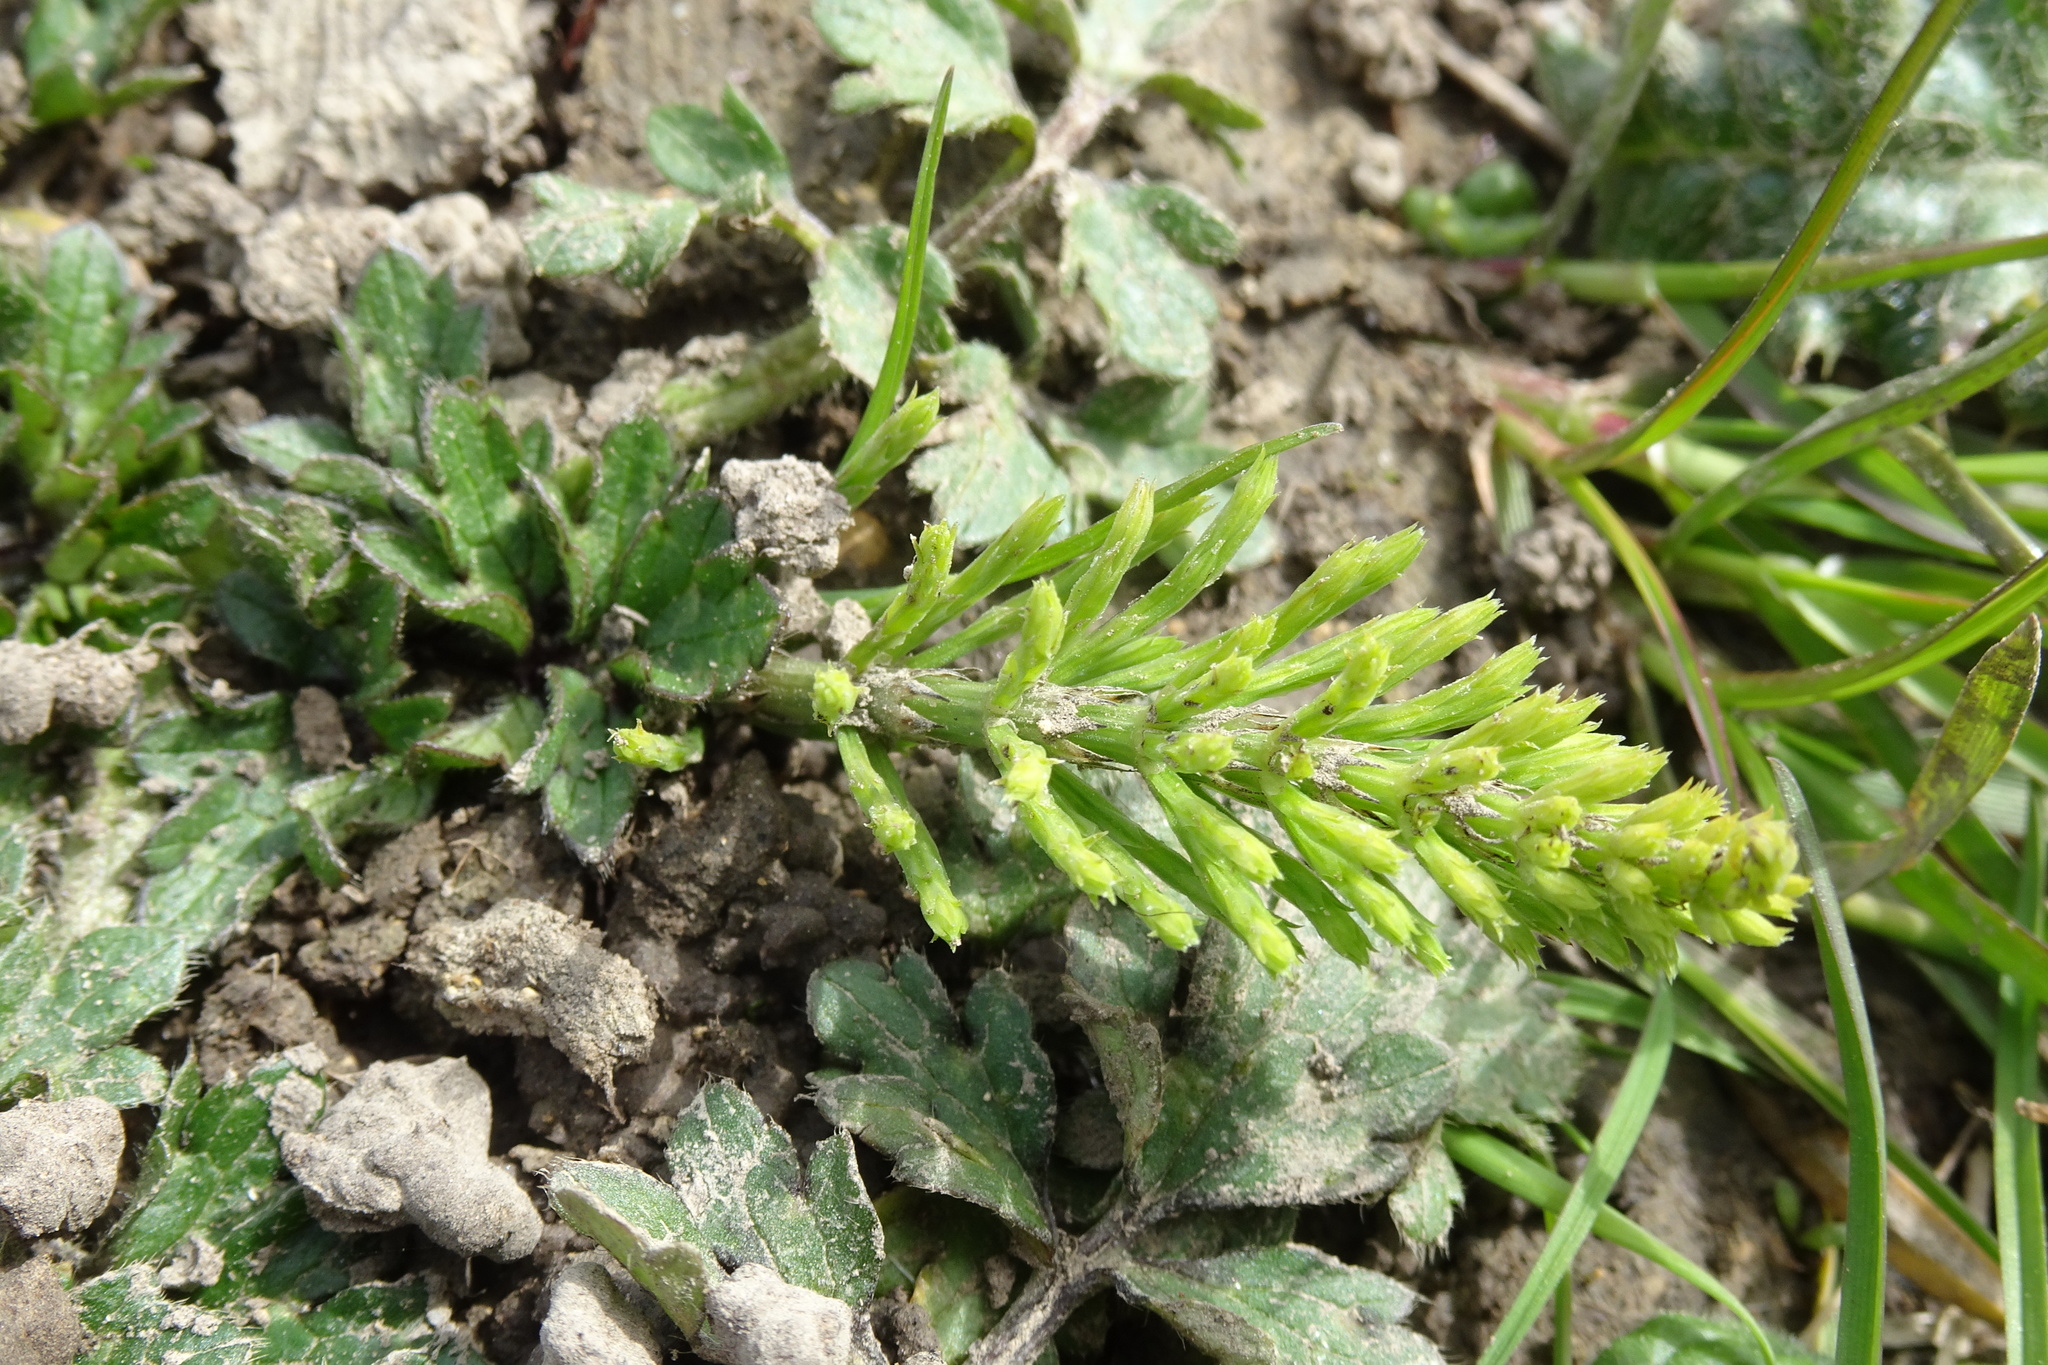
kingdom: Plantae
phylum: Tracheophyta
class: Polypodiopsida
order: Equisetales
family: Equisetaceae
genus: Equisetum
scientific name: Equisetum arvense
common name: Field horsetail
